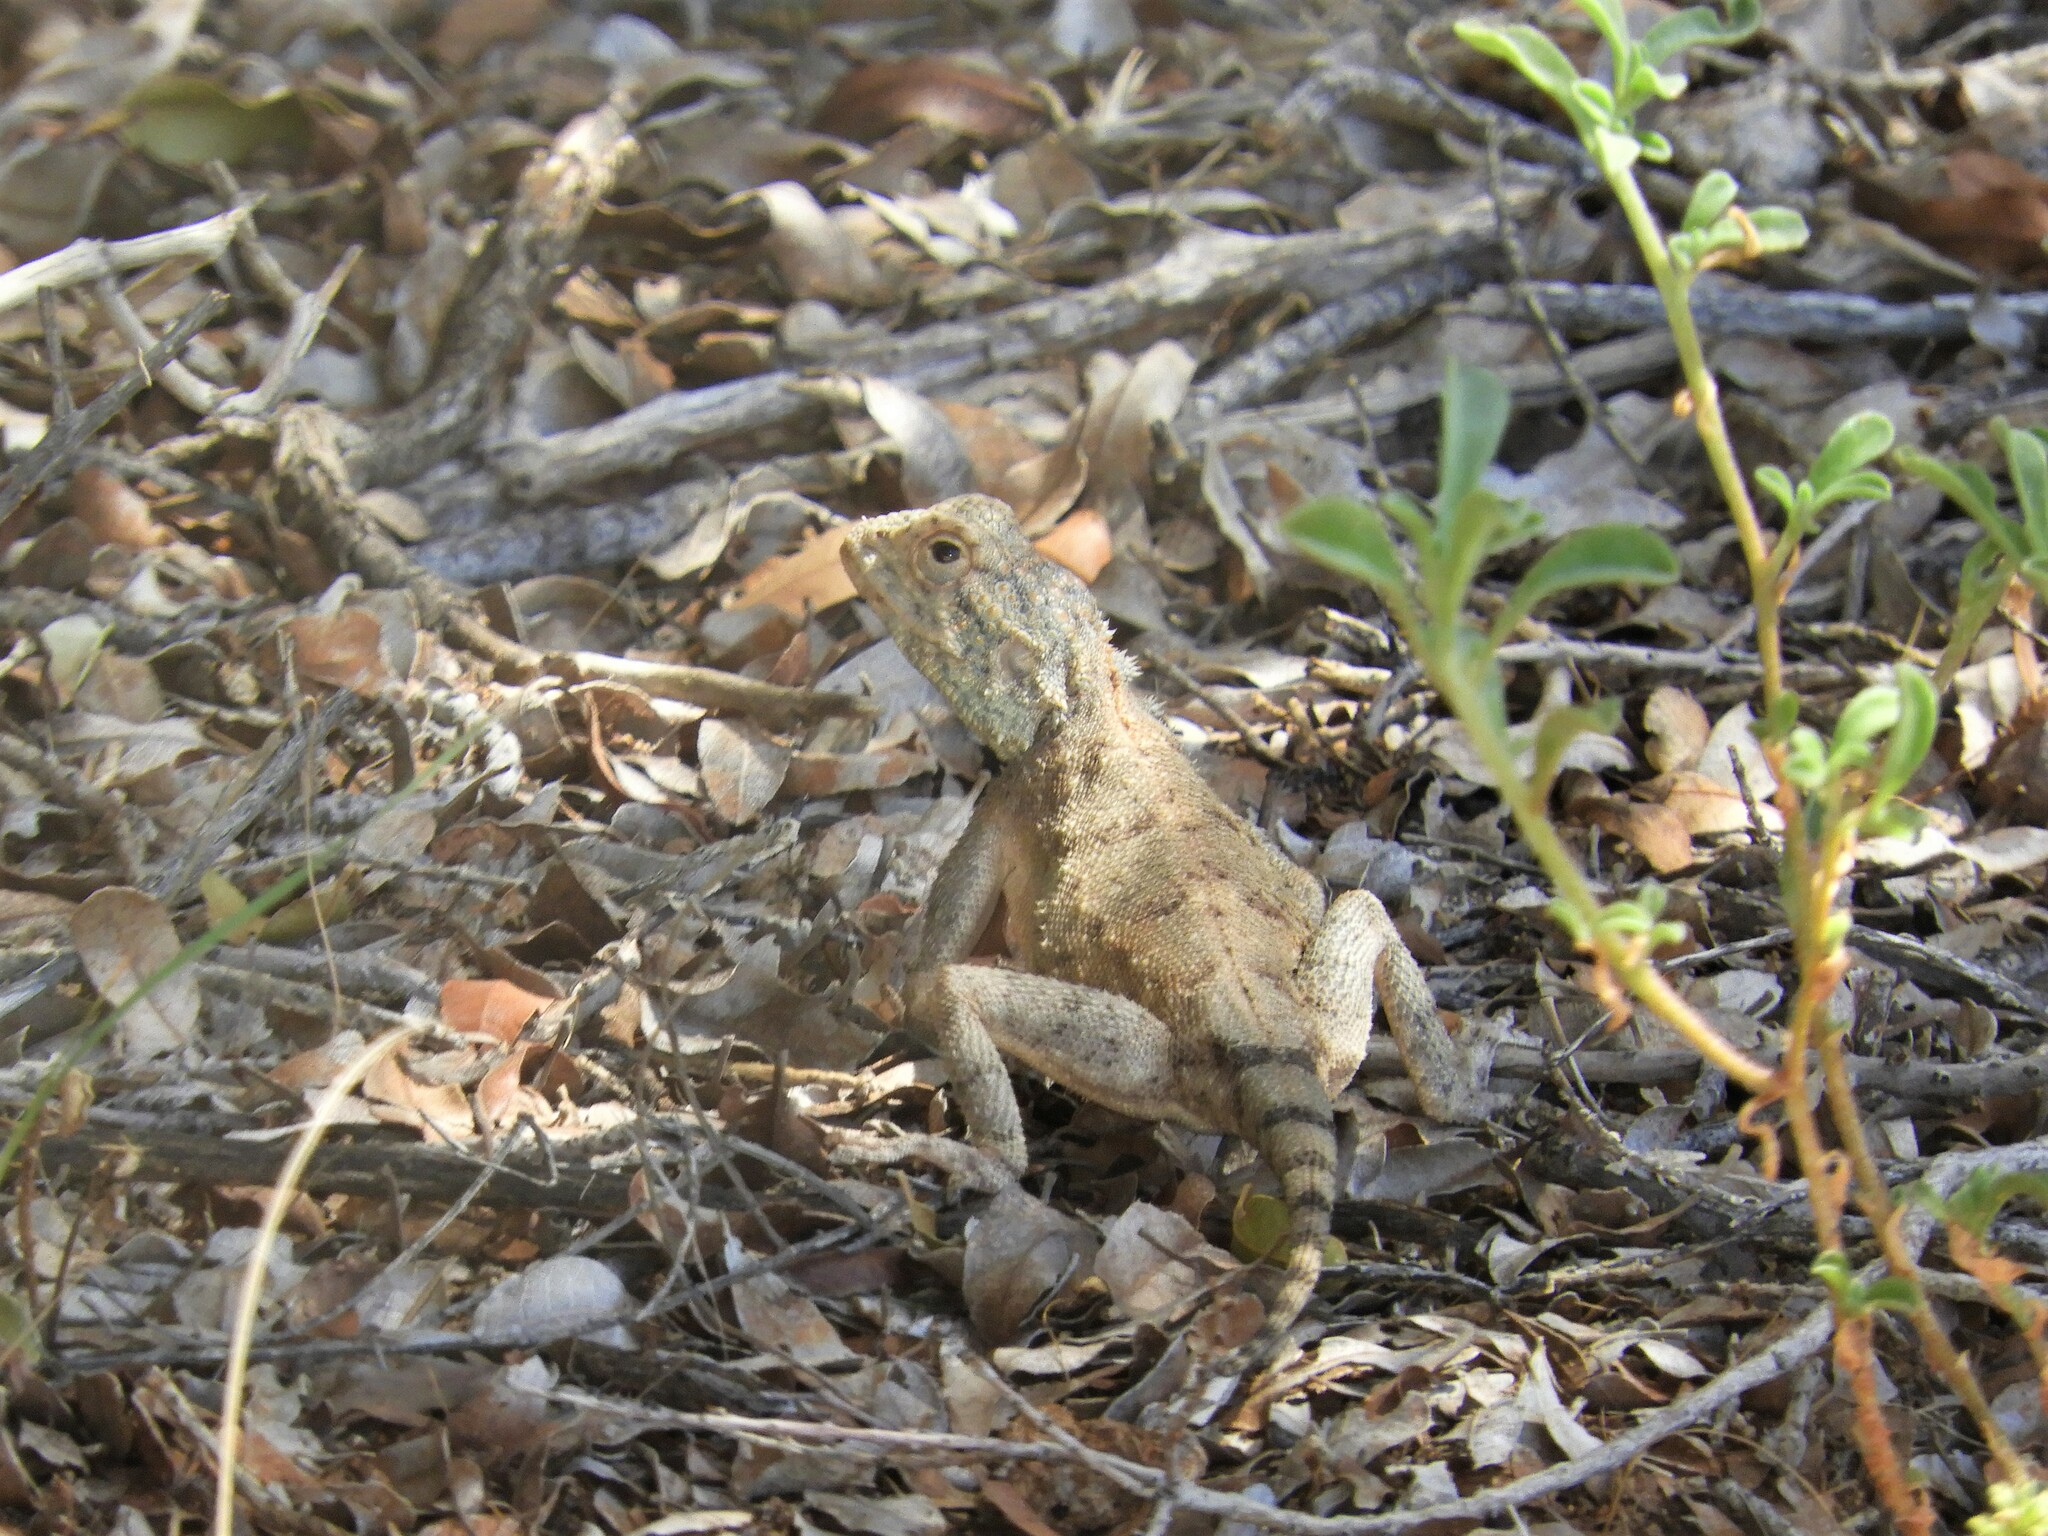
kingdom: Animalia
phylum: Chordata
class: Squamata
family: Agamidae
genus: Agama
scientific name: Agama anchietae
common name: Anchieta's agama
